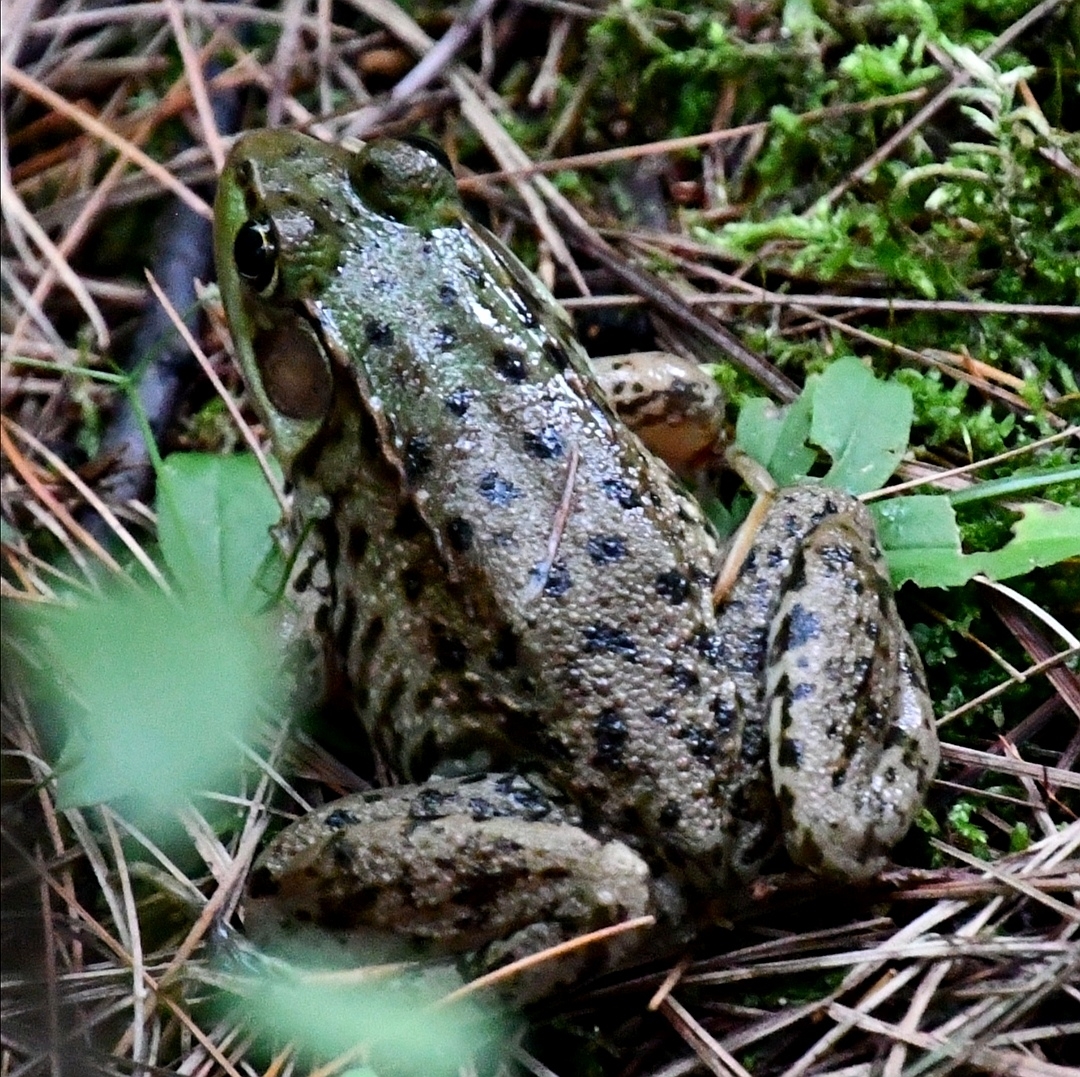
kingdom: Animalia
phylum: Chordata
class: Amphibia
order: Anura
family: Ranidae
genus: Lithobates
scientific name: Lithobates clamitans
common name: Green frog
